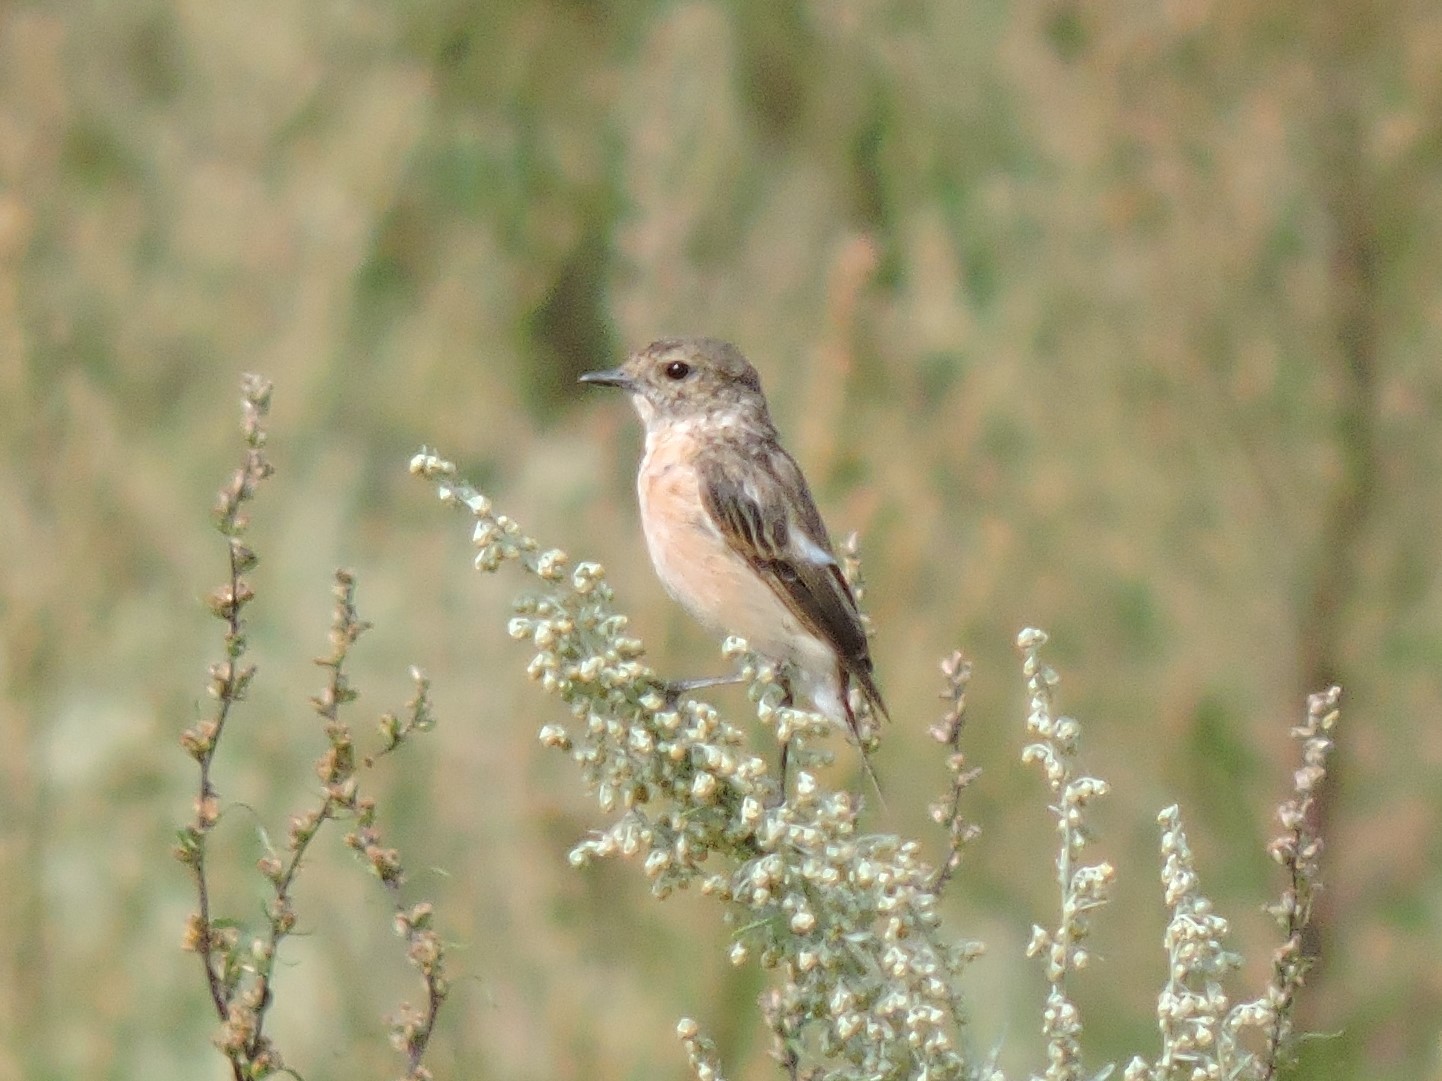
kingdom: Animalia
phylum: Chordata
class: Aves
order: Passeriformes
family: Muscicapidae
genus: Saxicola
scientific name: Saxicola maurus
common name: Siberian stonechat
